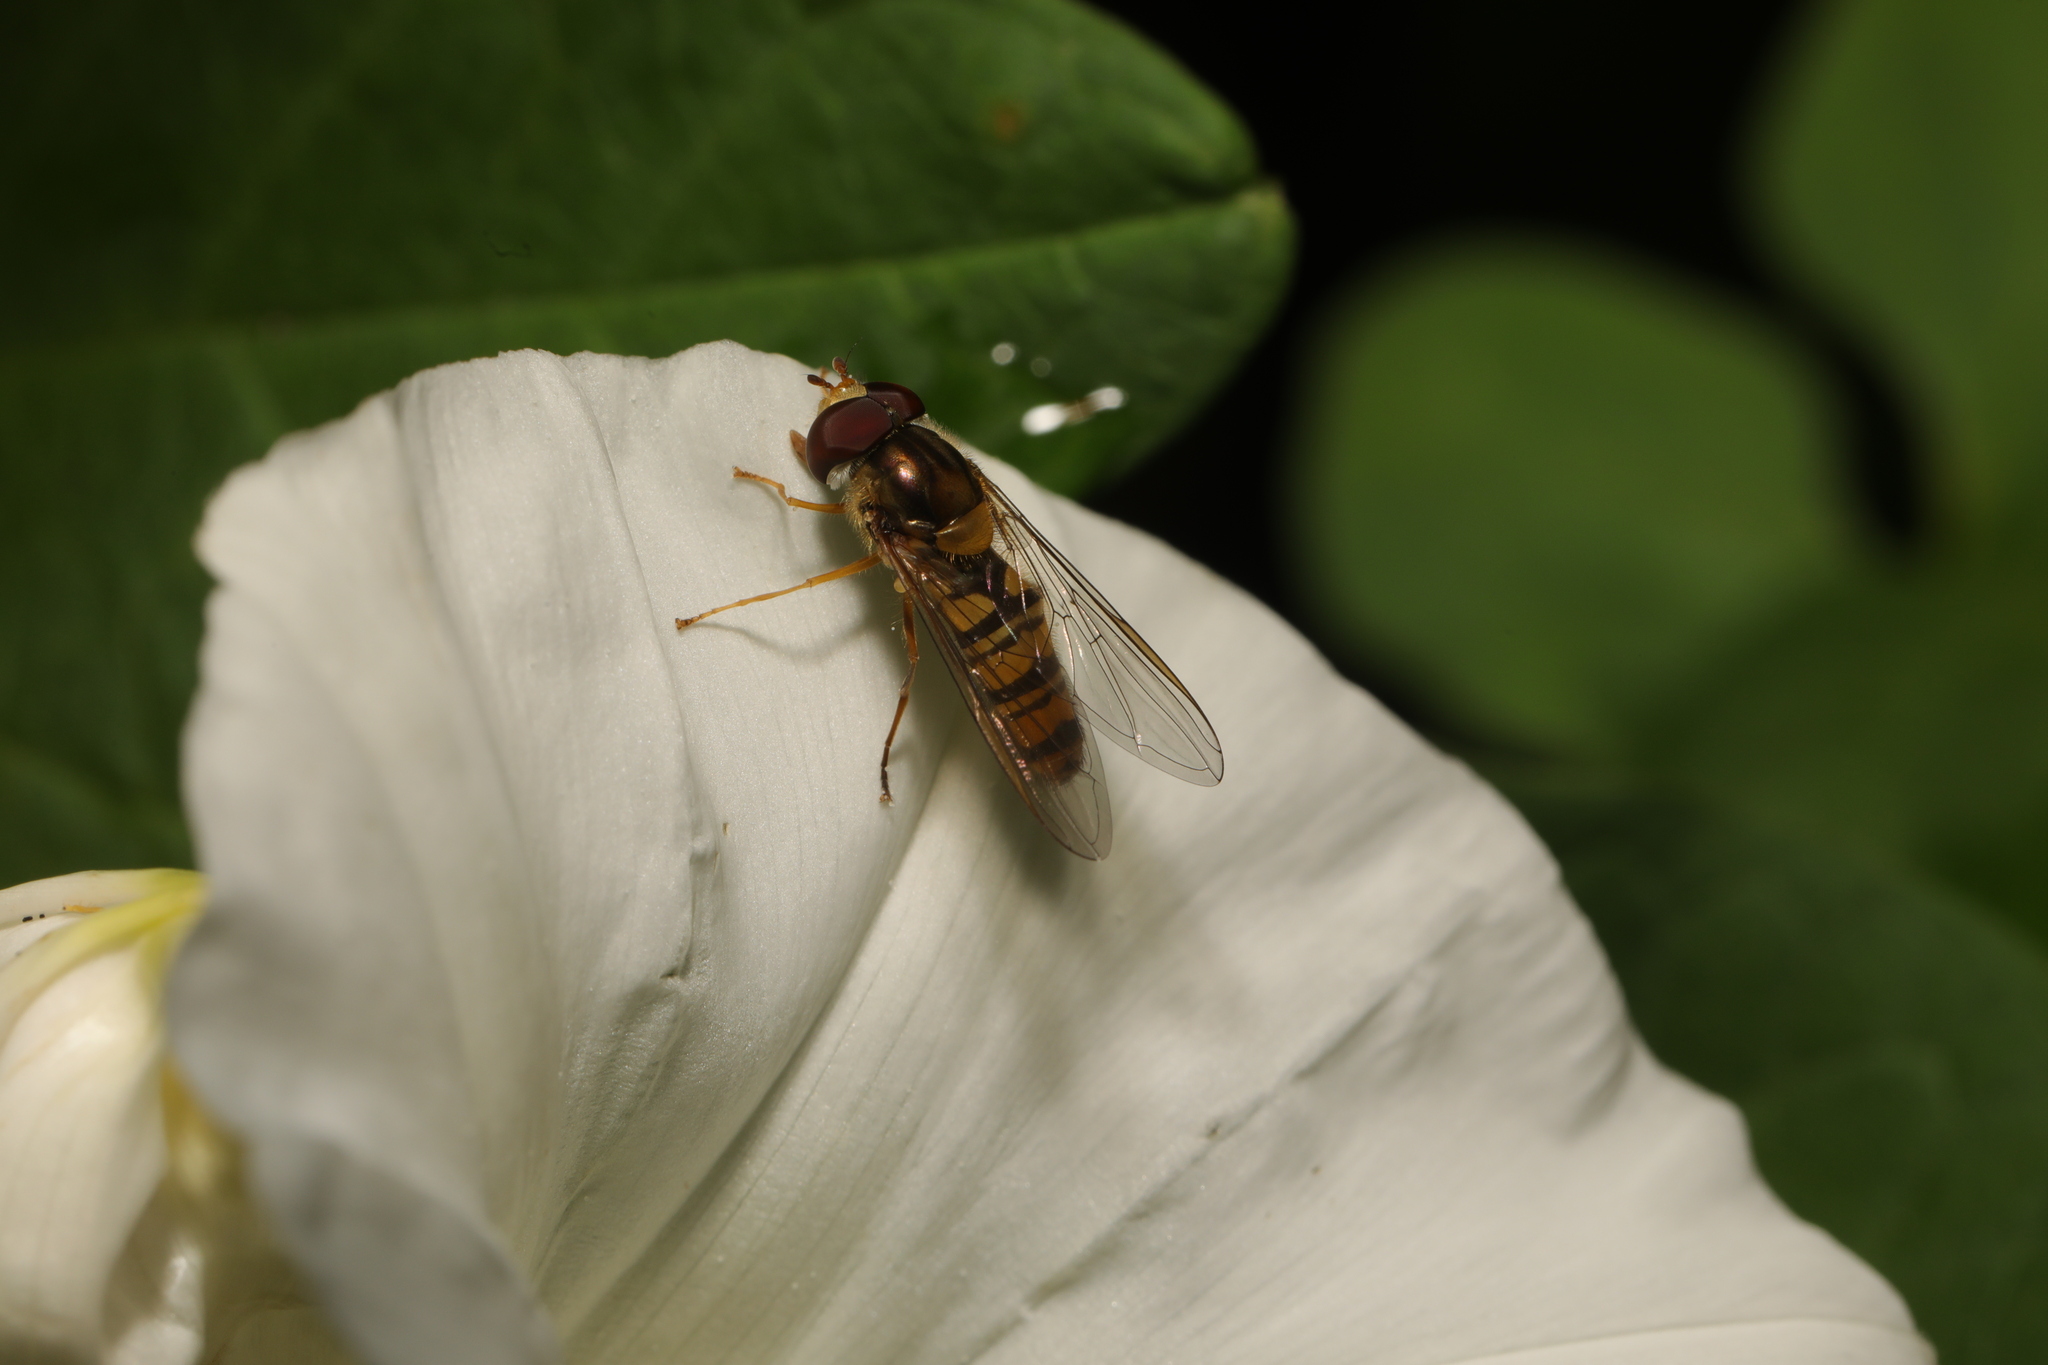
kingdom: Animalia
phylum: Arthropoda
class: Insecta
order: Diptera
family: Syrphidae
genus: Episyrphus
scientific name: Episyrphus balteatus
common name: Marmalade hoverfly
